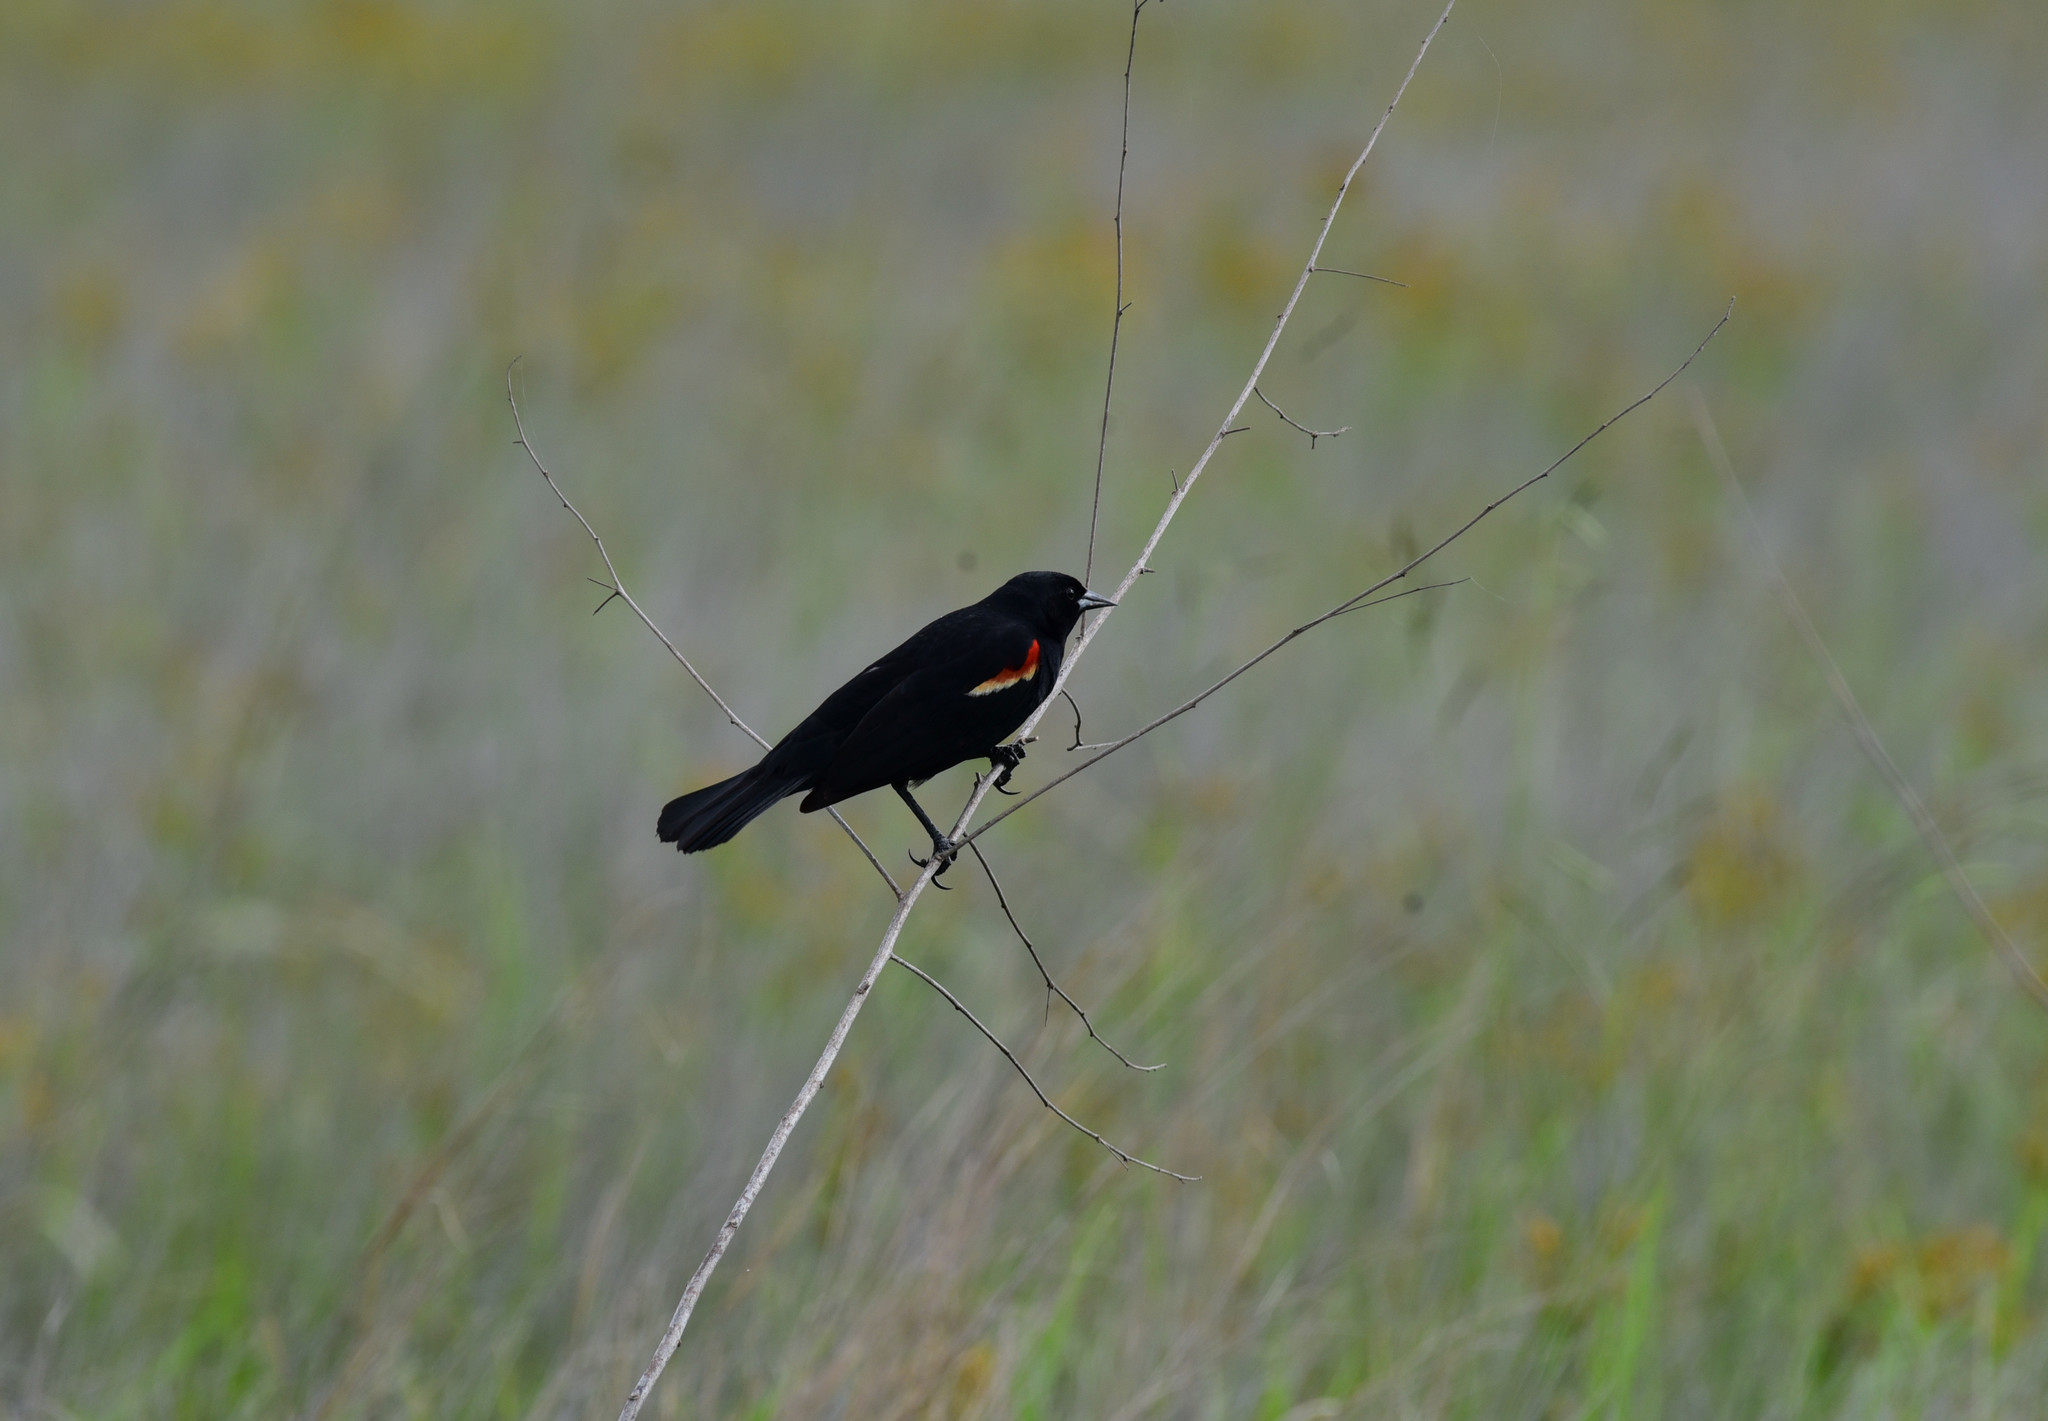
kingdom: Animalia
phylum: Chordata
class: Aves
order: Passeriformes
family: Icteridae
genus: Agelaius
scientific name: Agelaius phoeniceus
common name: Red-winged blackbird
